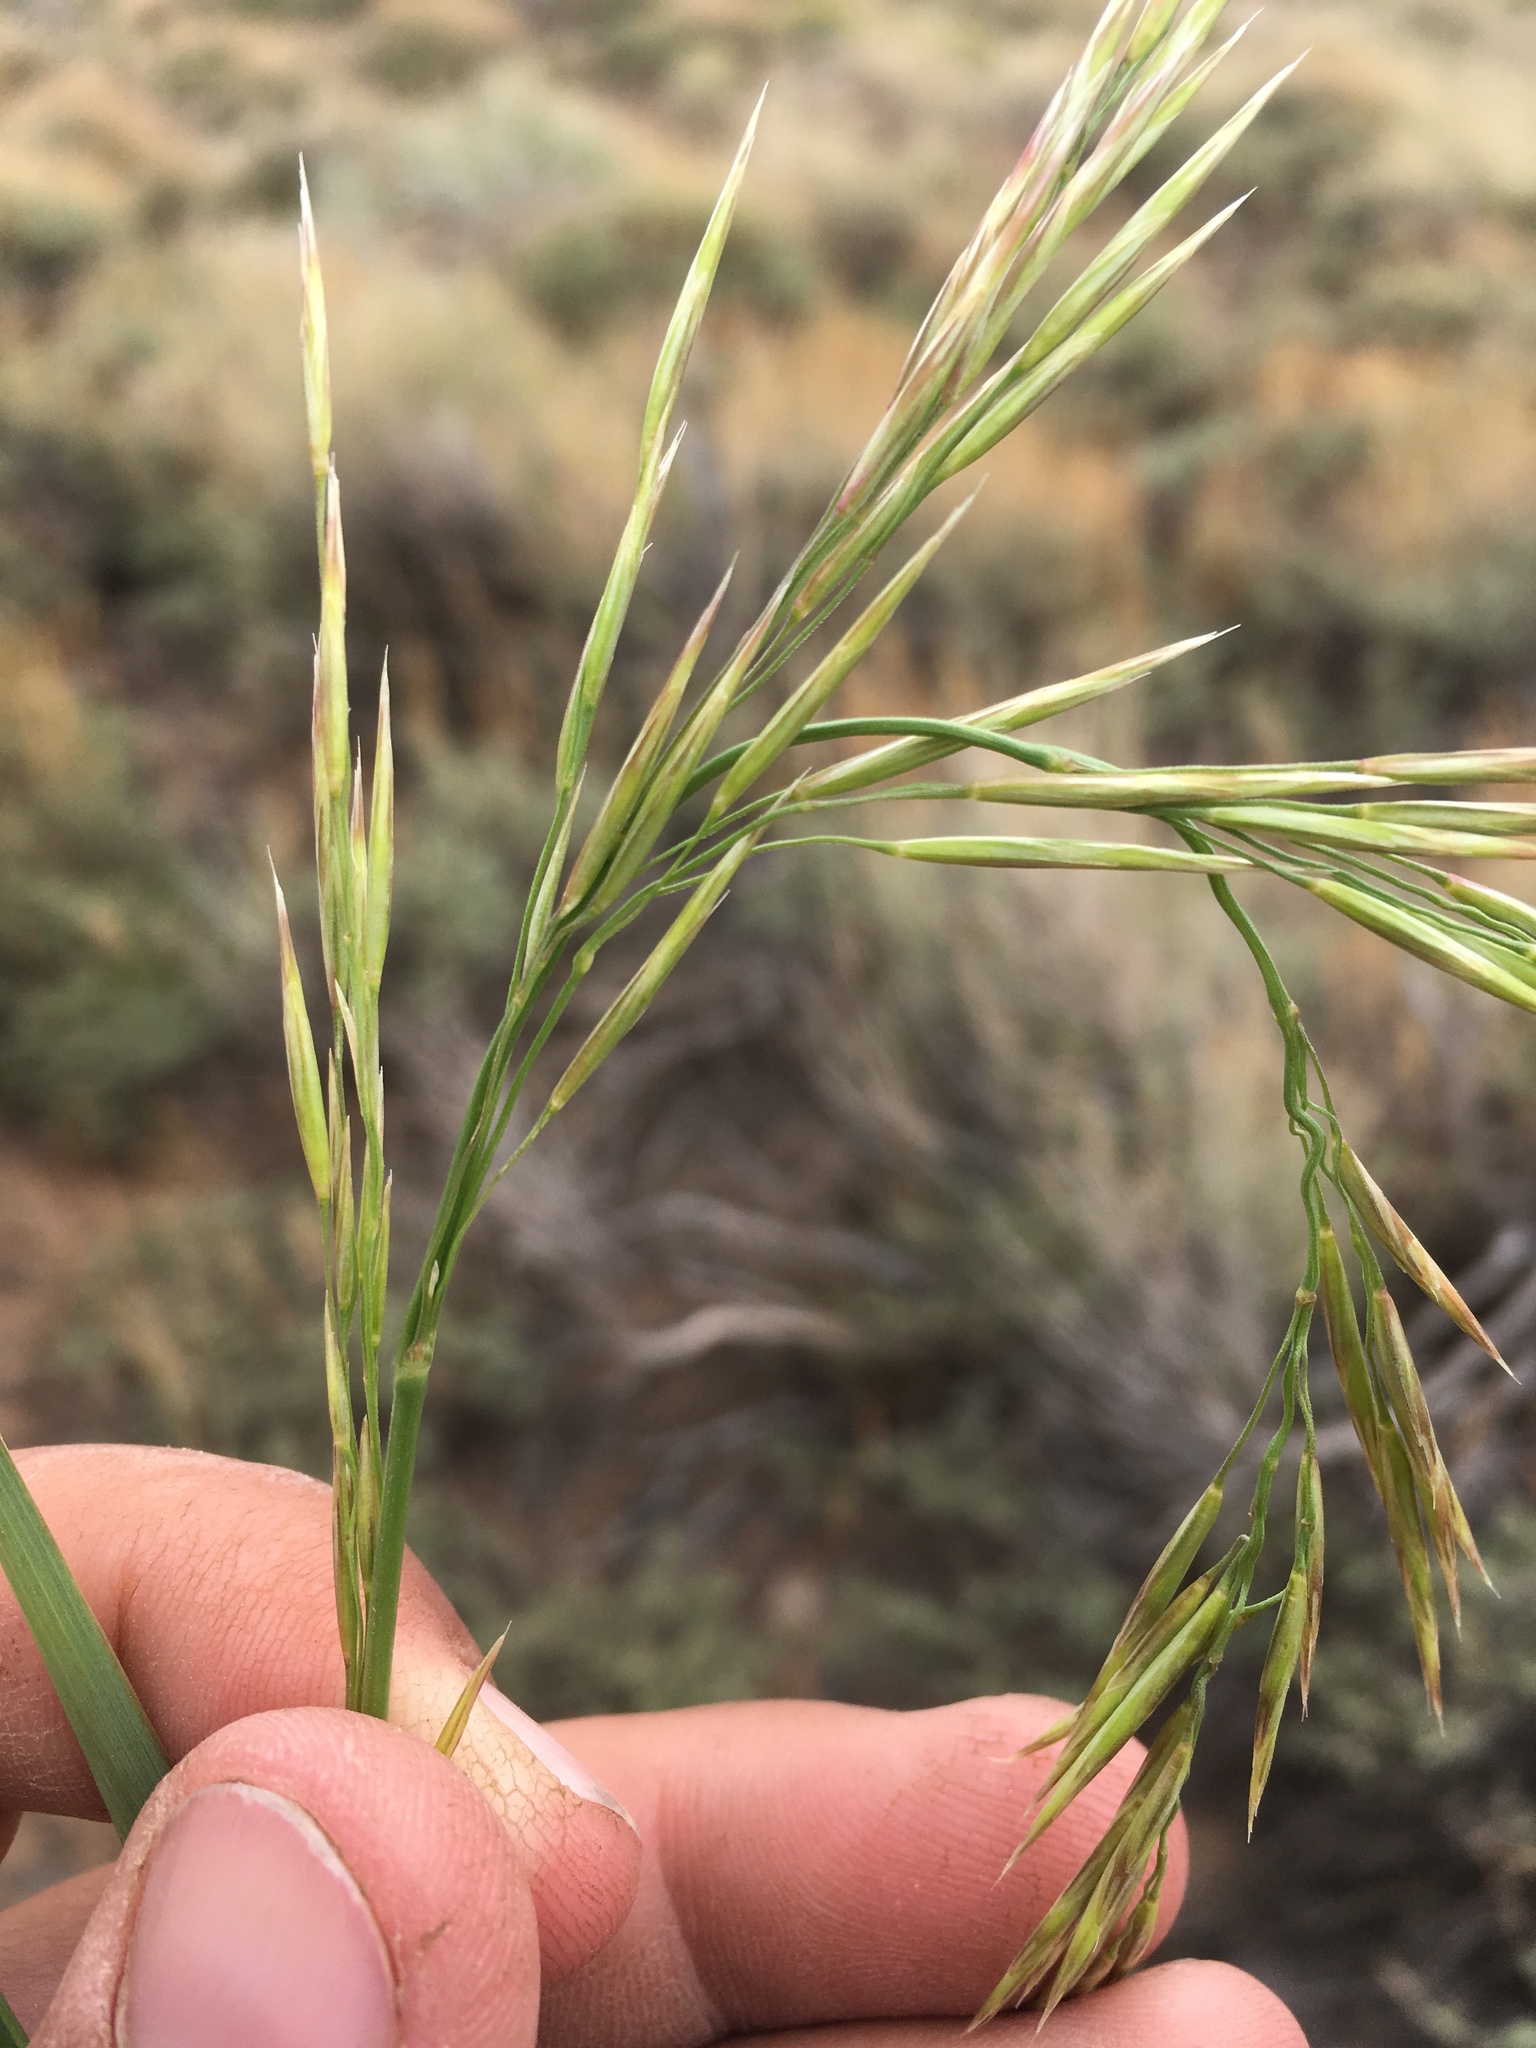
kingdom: Plantae
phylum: Tracheophyta
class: Liliopsida
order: Poales
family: Poaceae
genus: Bromus
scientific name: Bromus inermis
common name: Smooth brome
